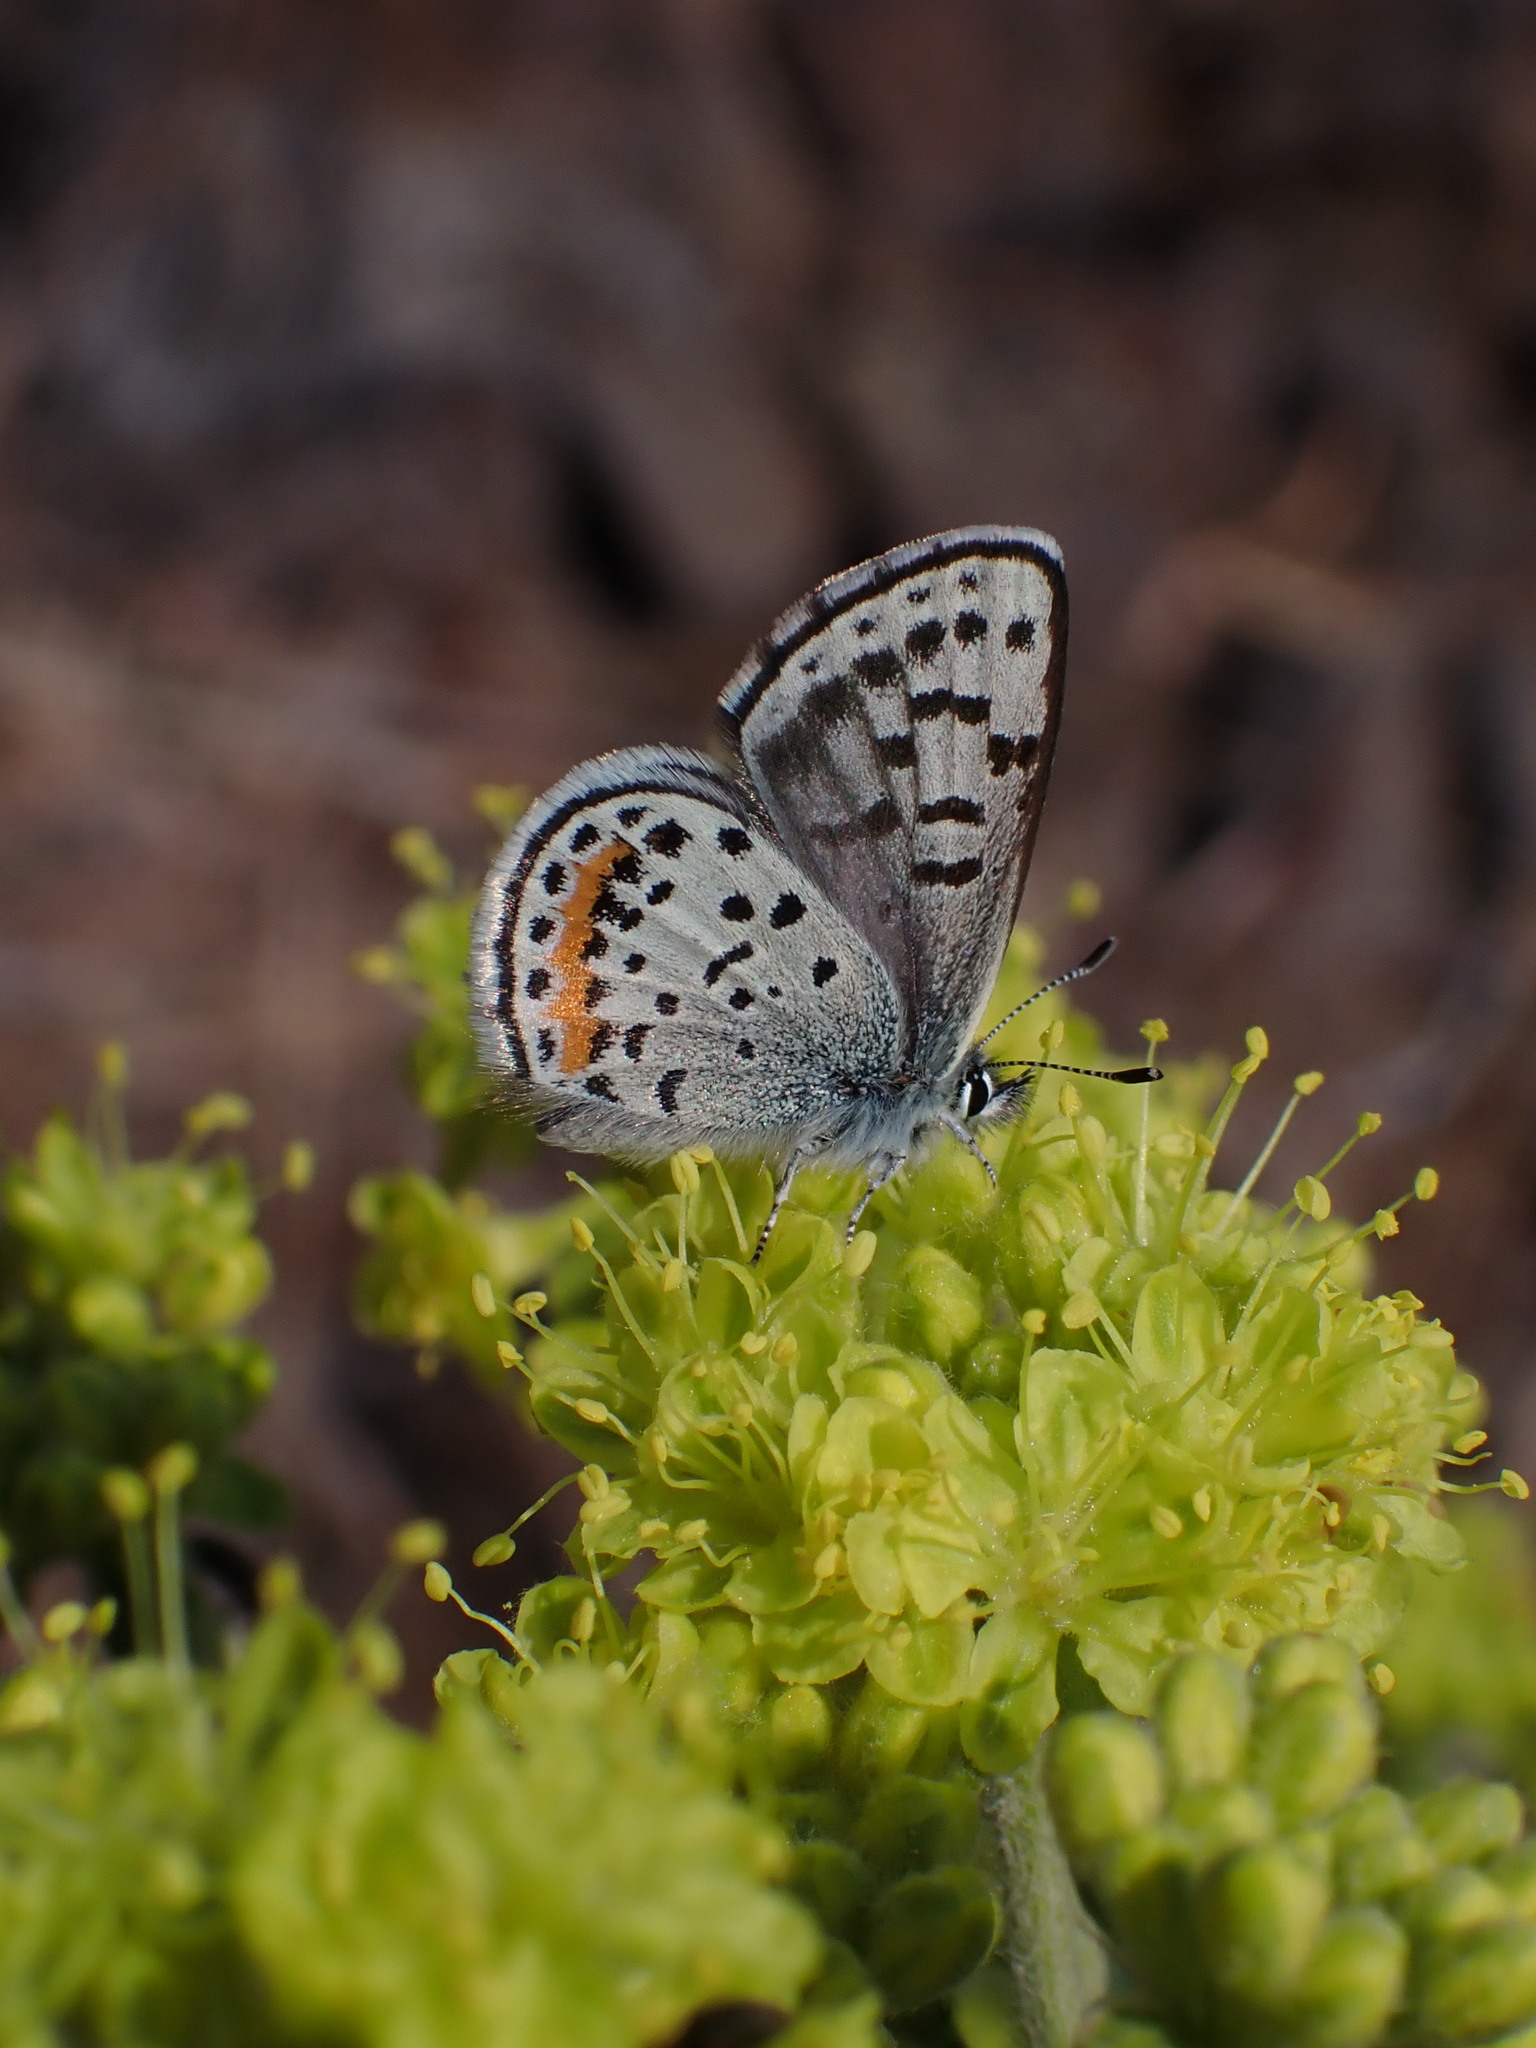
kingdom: Animalia
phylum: Arthropoda
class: Insecta
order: Lepidoptera
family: Lycaenidae
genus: Euphilotes
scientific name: Euphilotes
